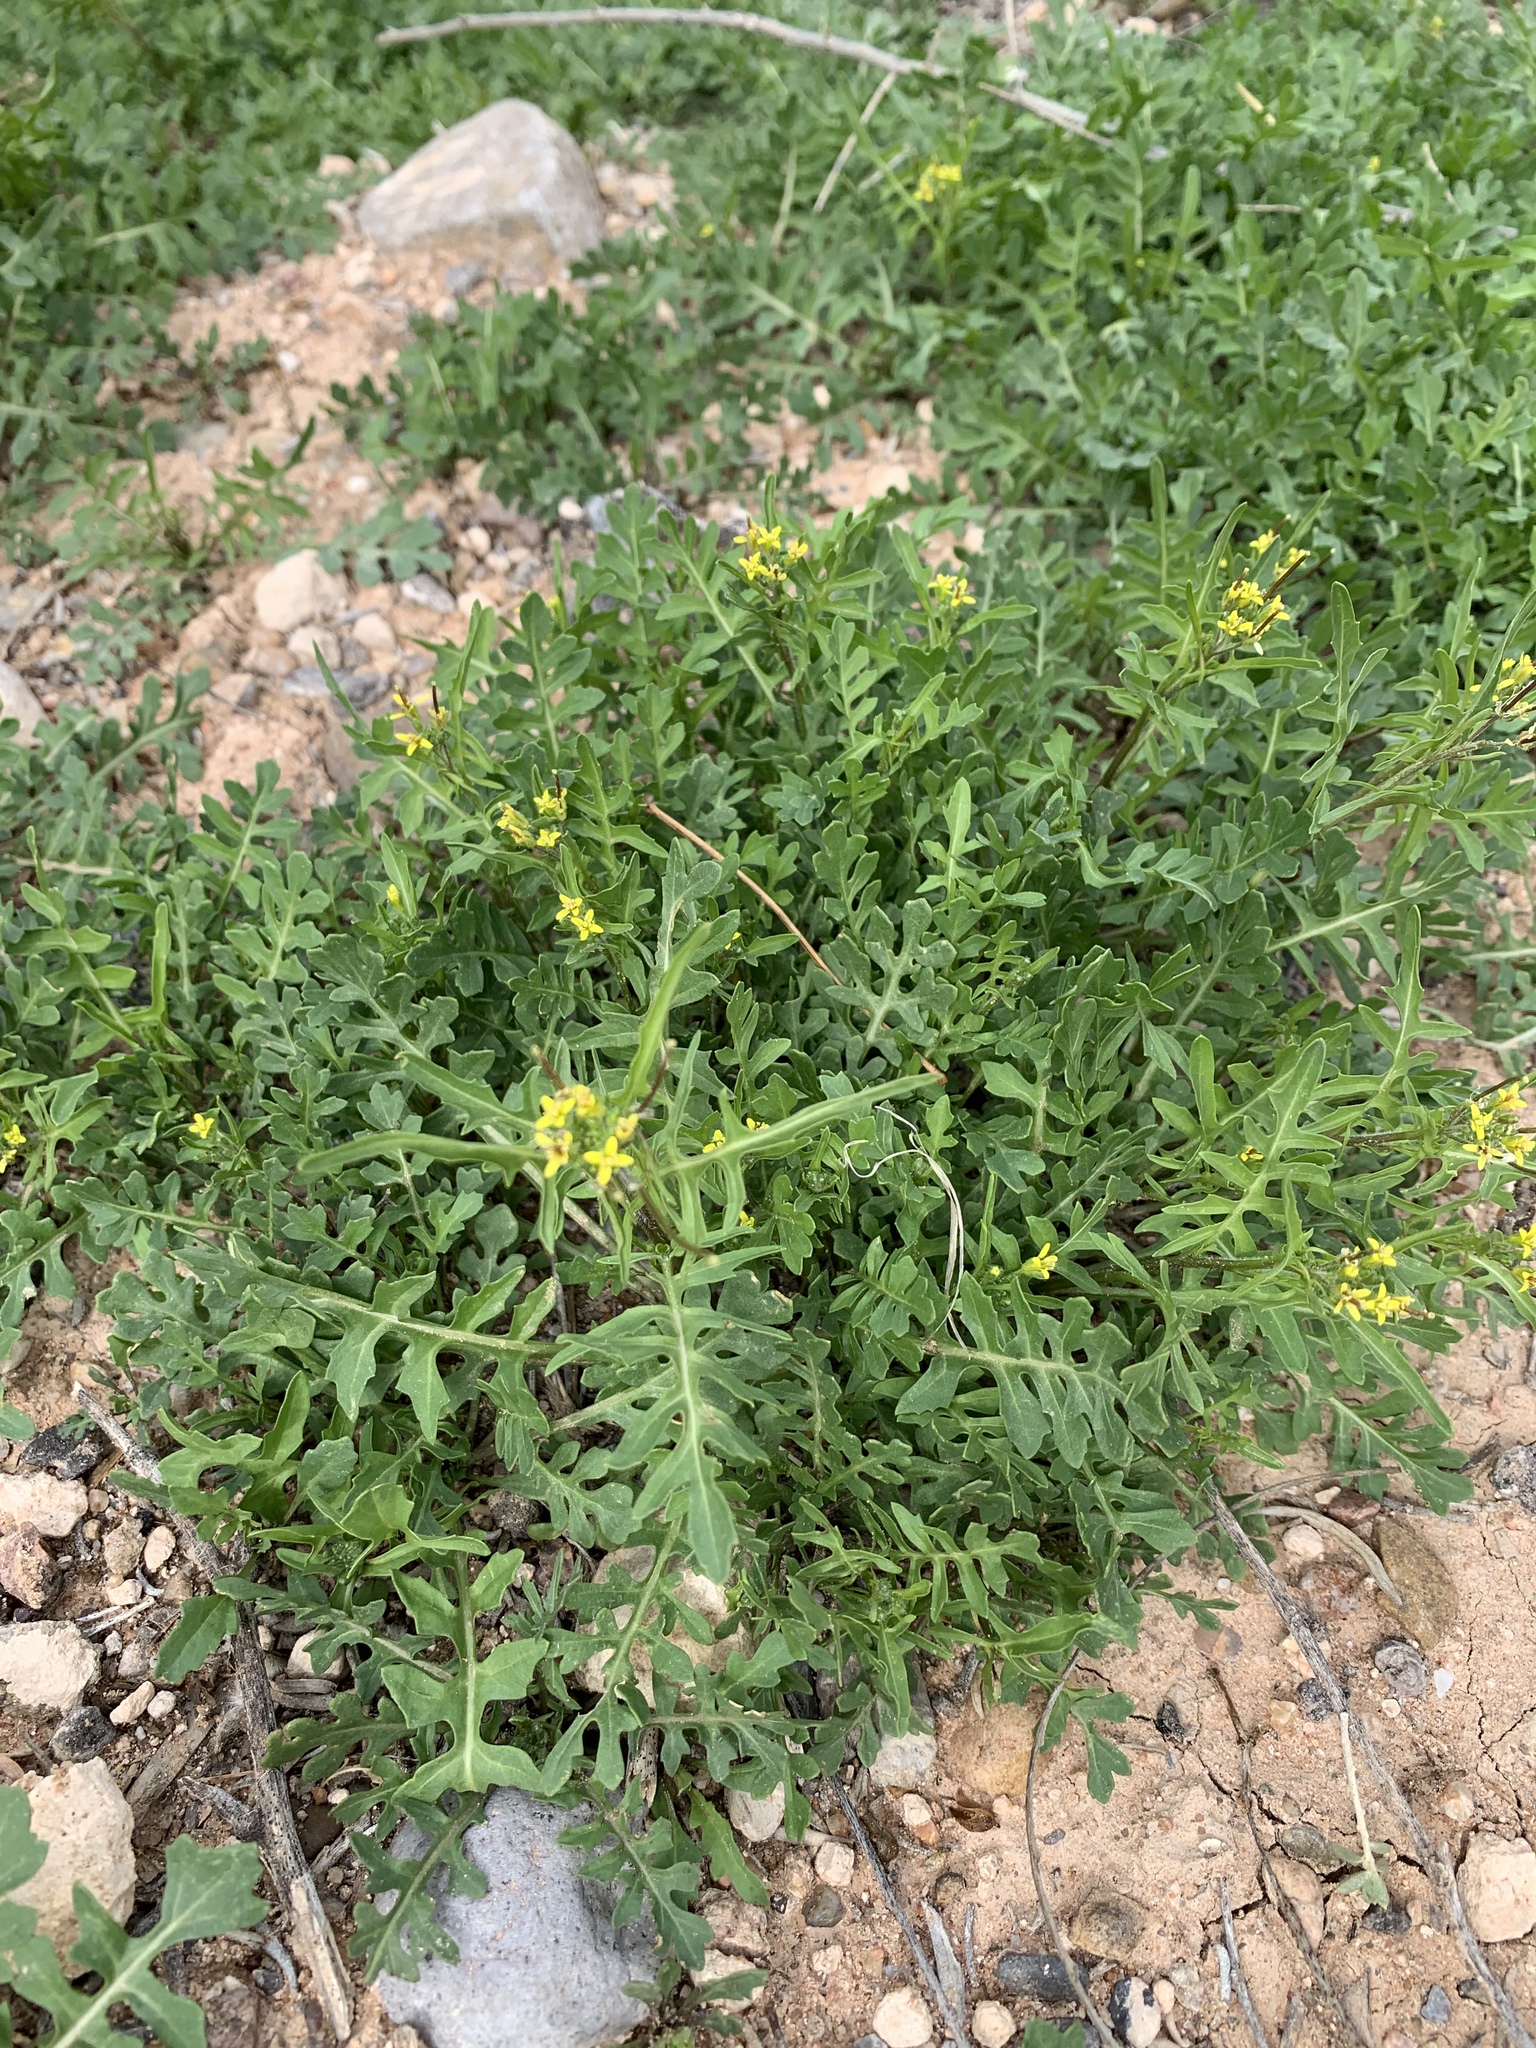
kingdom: Plantae
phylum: Tracheophyta
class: Magnoliopsida
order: Brassicales
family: Brassicaceae
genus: Sisymbrium
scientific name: Sisymbrium irio
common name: London rocket
